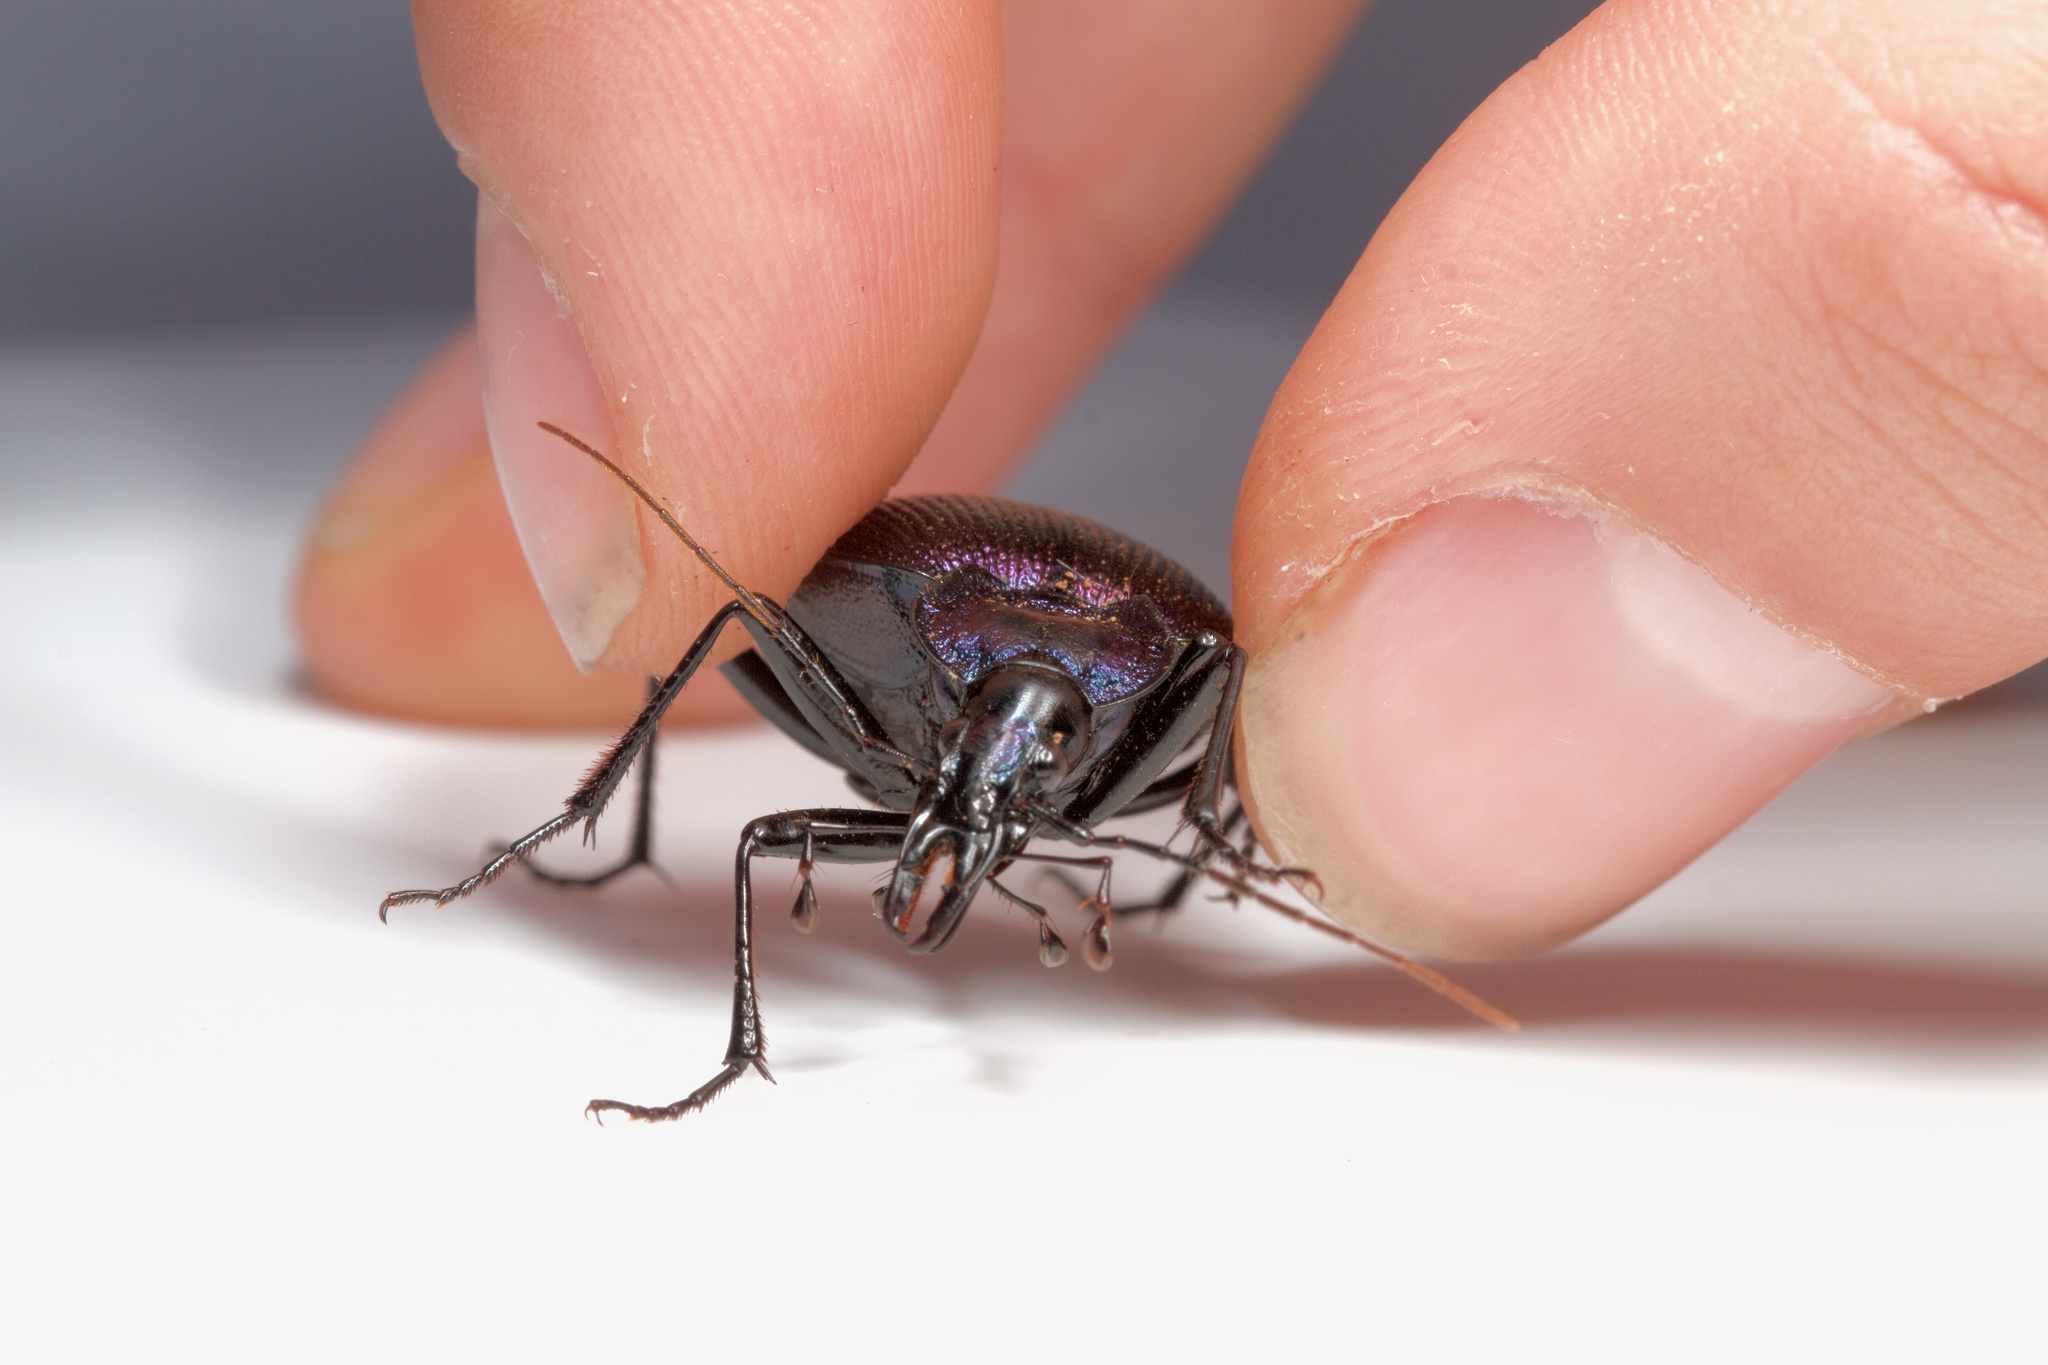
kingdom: Animalia
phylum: Arthropoda
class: Insecta
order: Coleoptera
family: Carabidae
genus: Scaphinotus
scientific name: Scaphinotus viduus
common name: Bereft snail-eating beetle
